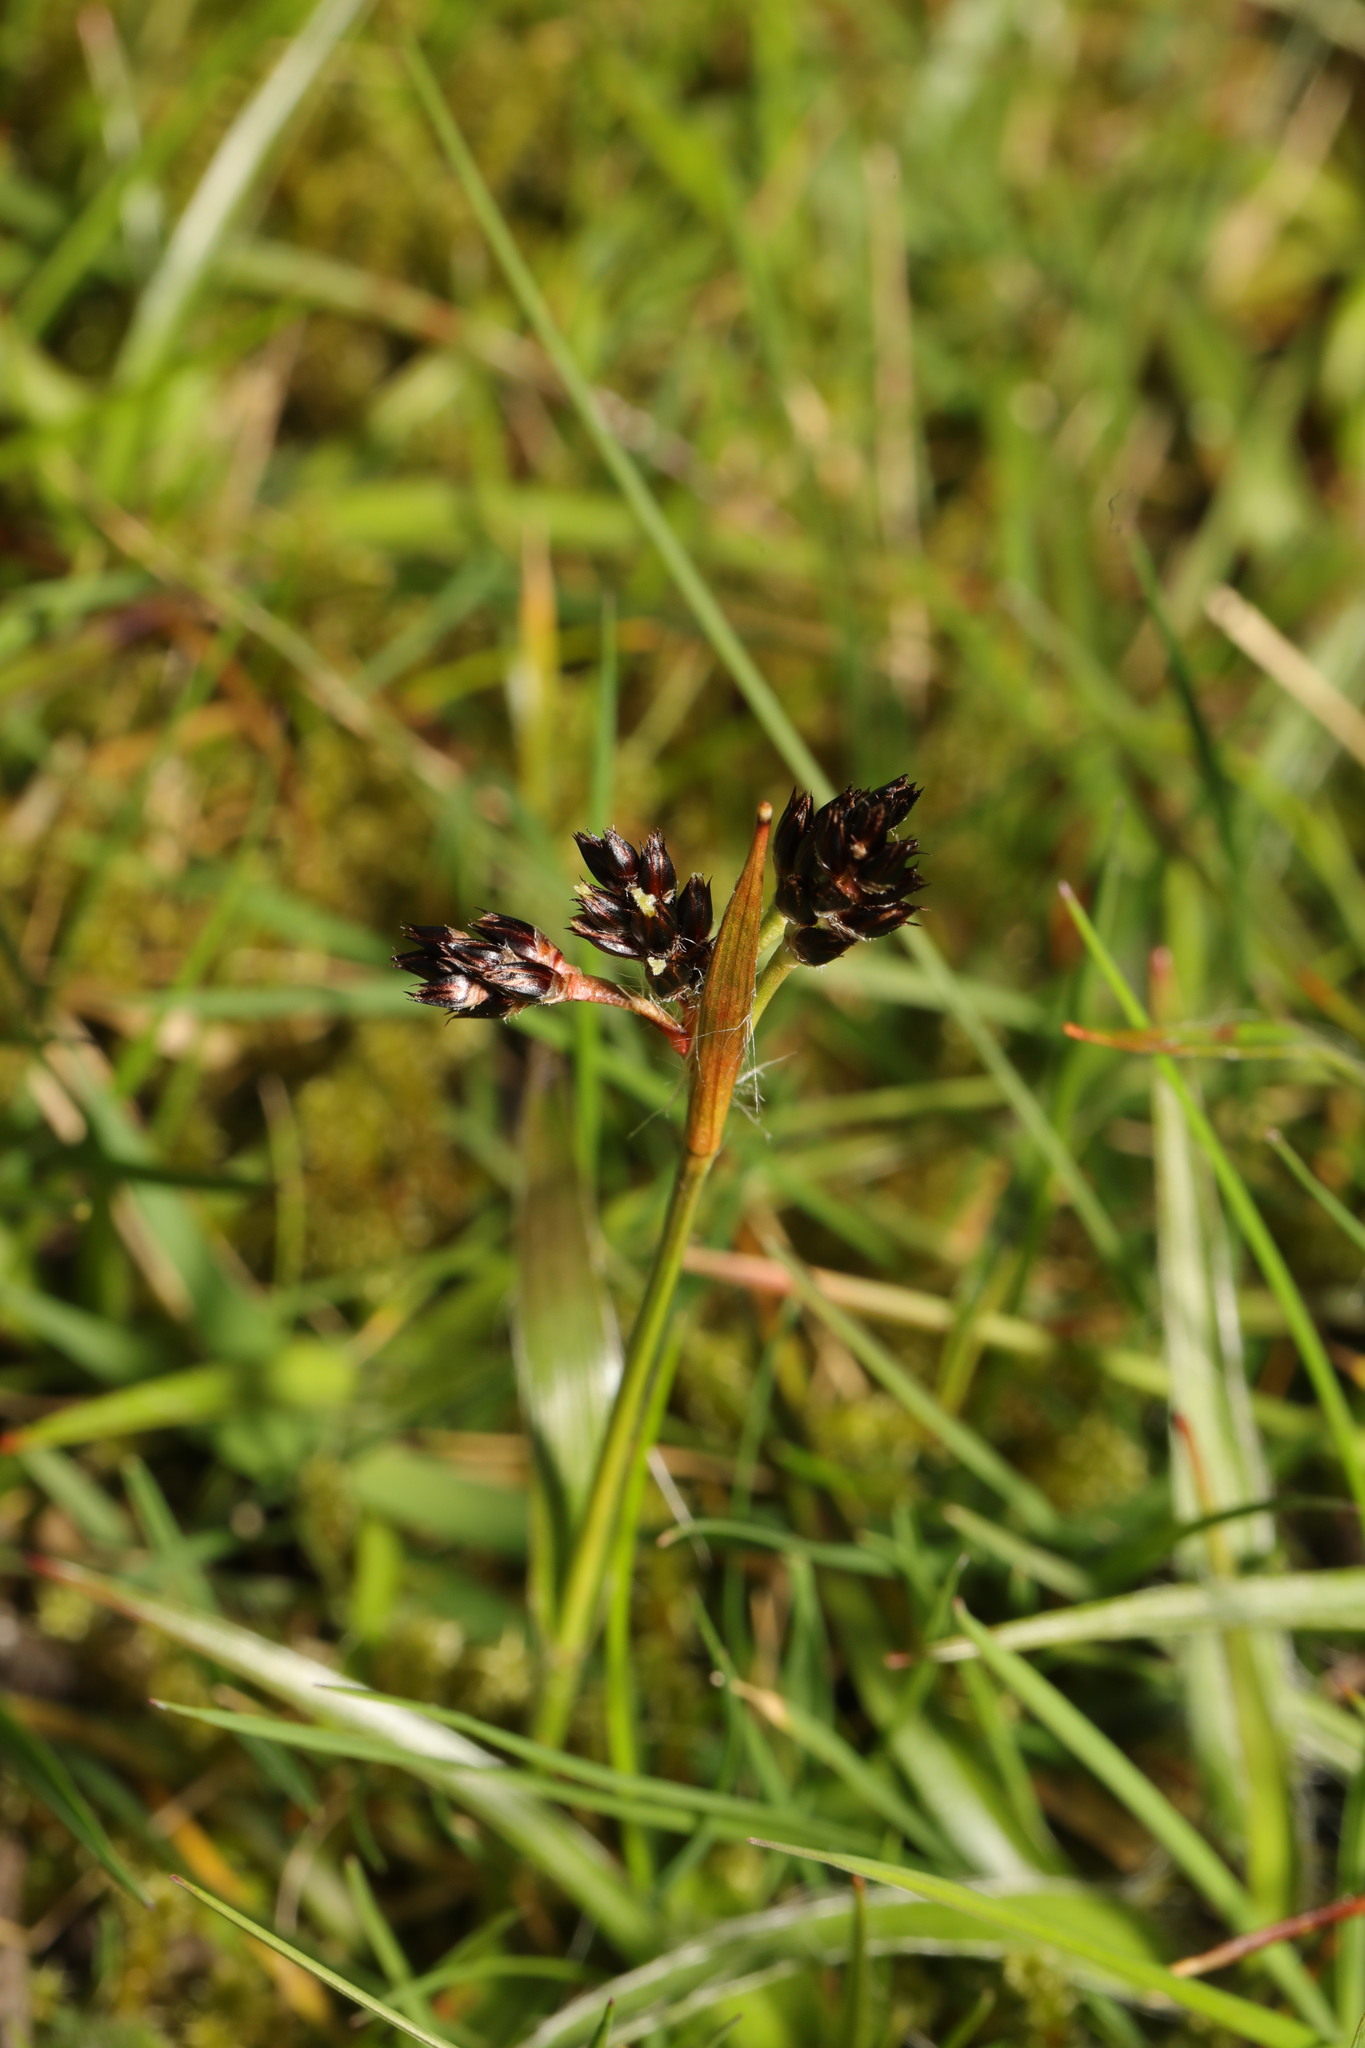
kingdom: Plantae
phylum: Tracheophyta
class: Liliopsida
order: Poales
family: Juncaceae
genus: Luzula
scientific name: Luzula campestris
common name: Field wood-rush
